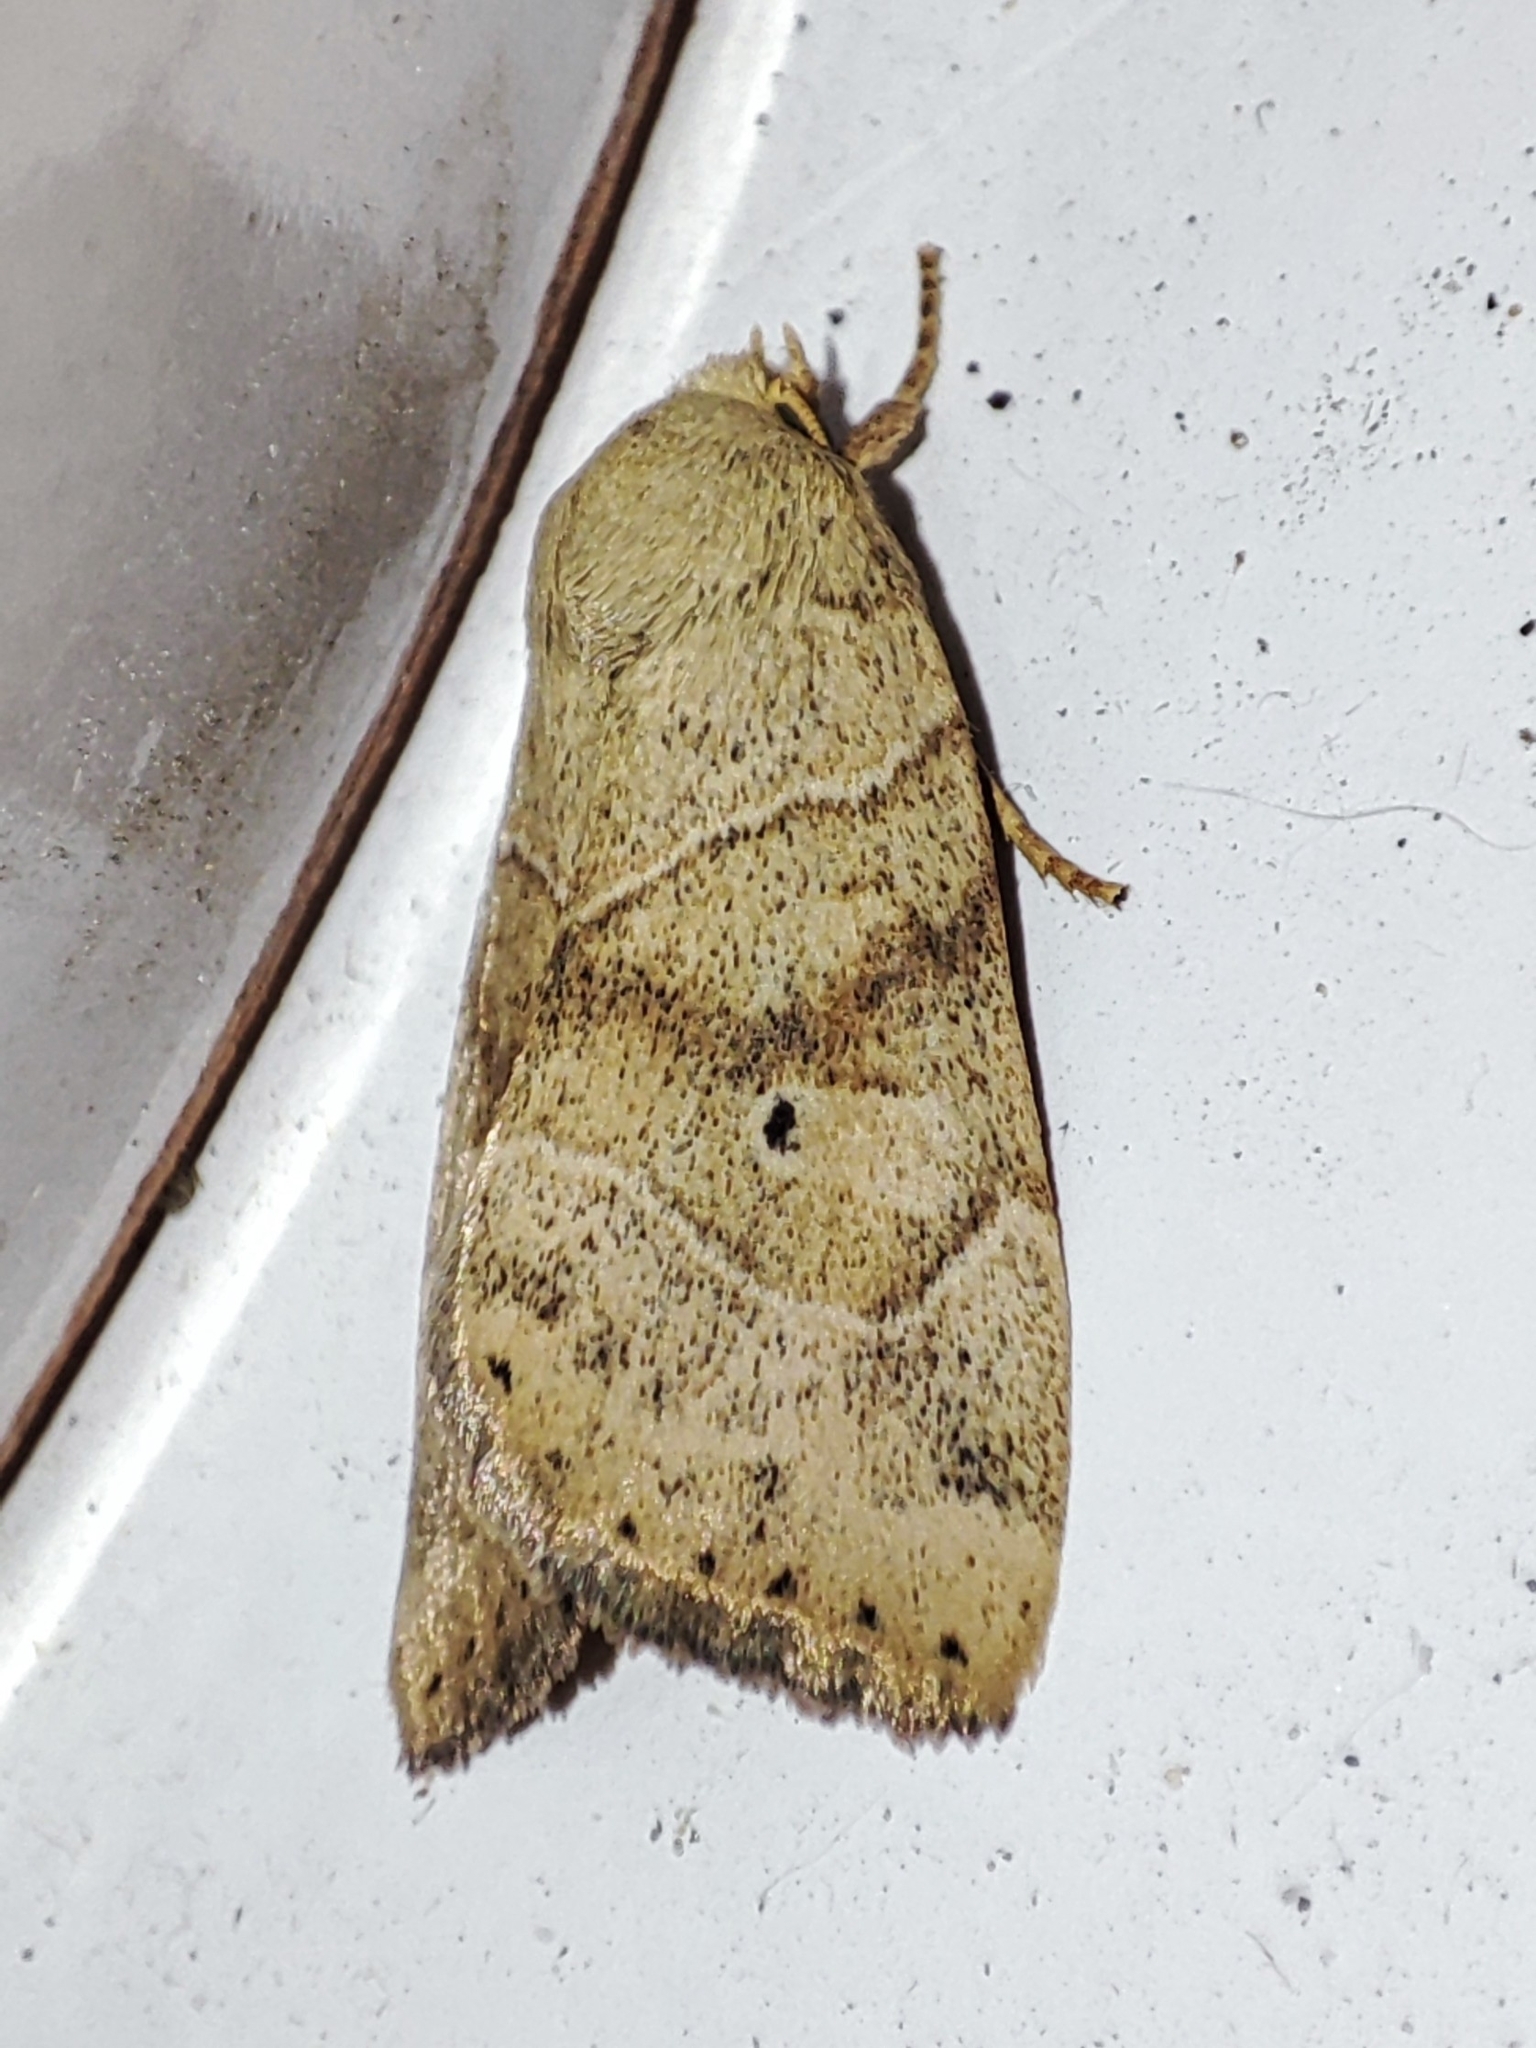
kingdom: Animalia
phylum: Arthropoda
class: Insecta
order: Lepidoptera
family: Noctuidae
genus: Cosmia
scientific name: Cosmia trapezina
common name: Dun-bar
